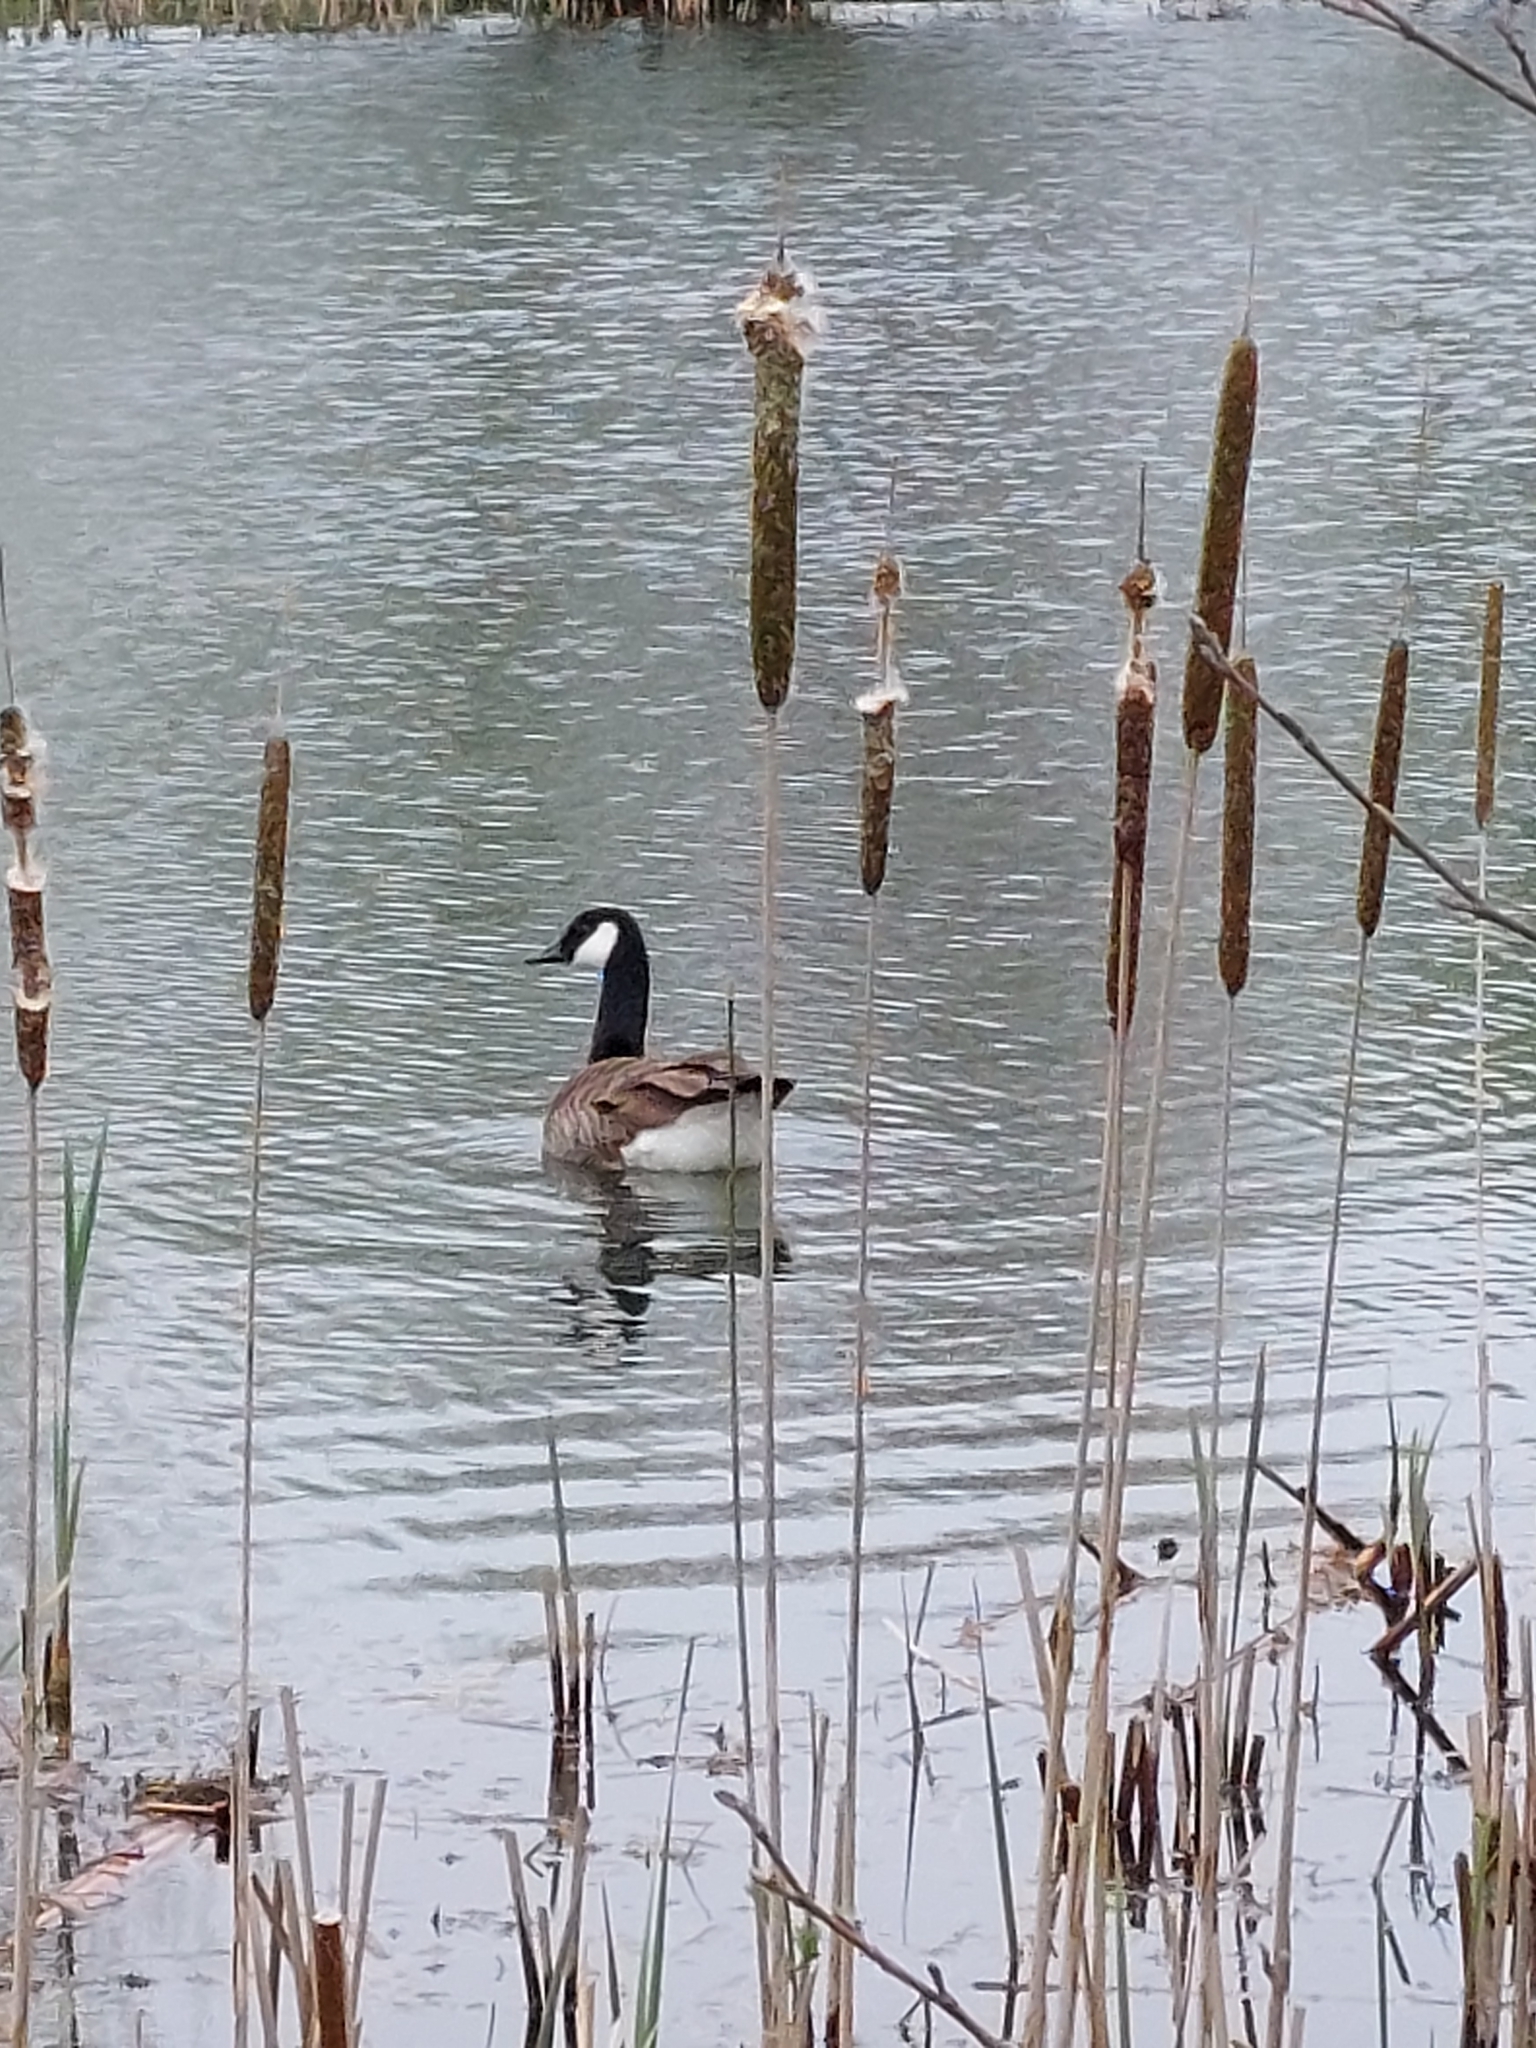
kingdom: Animalia
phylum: Chordata
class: Aves
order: Anseriformes
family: Anatidae
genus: Branta
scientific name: Branta canadensis
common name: Canada goose
